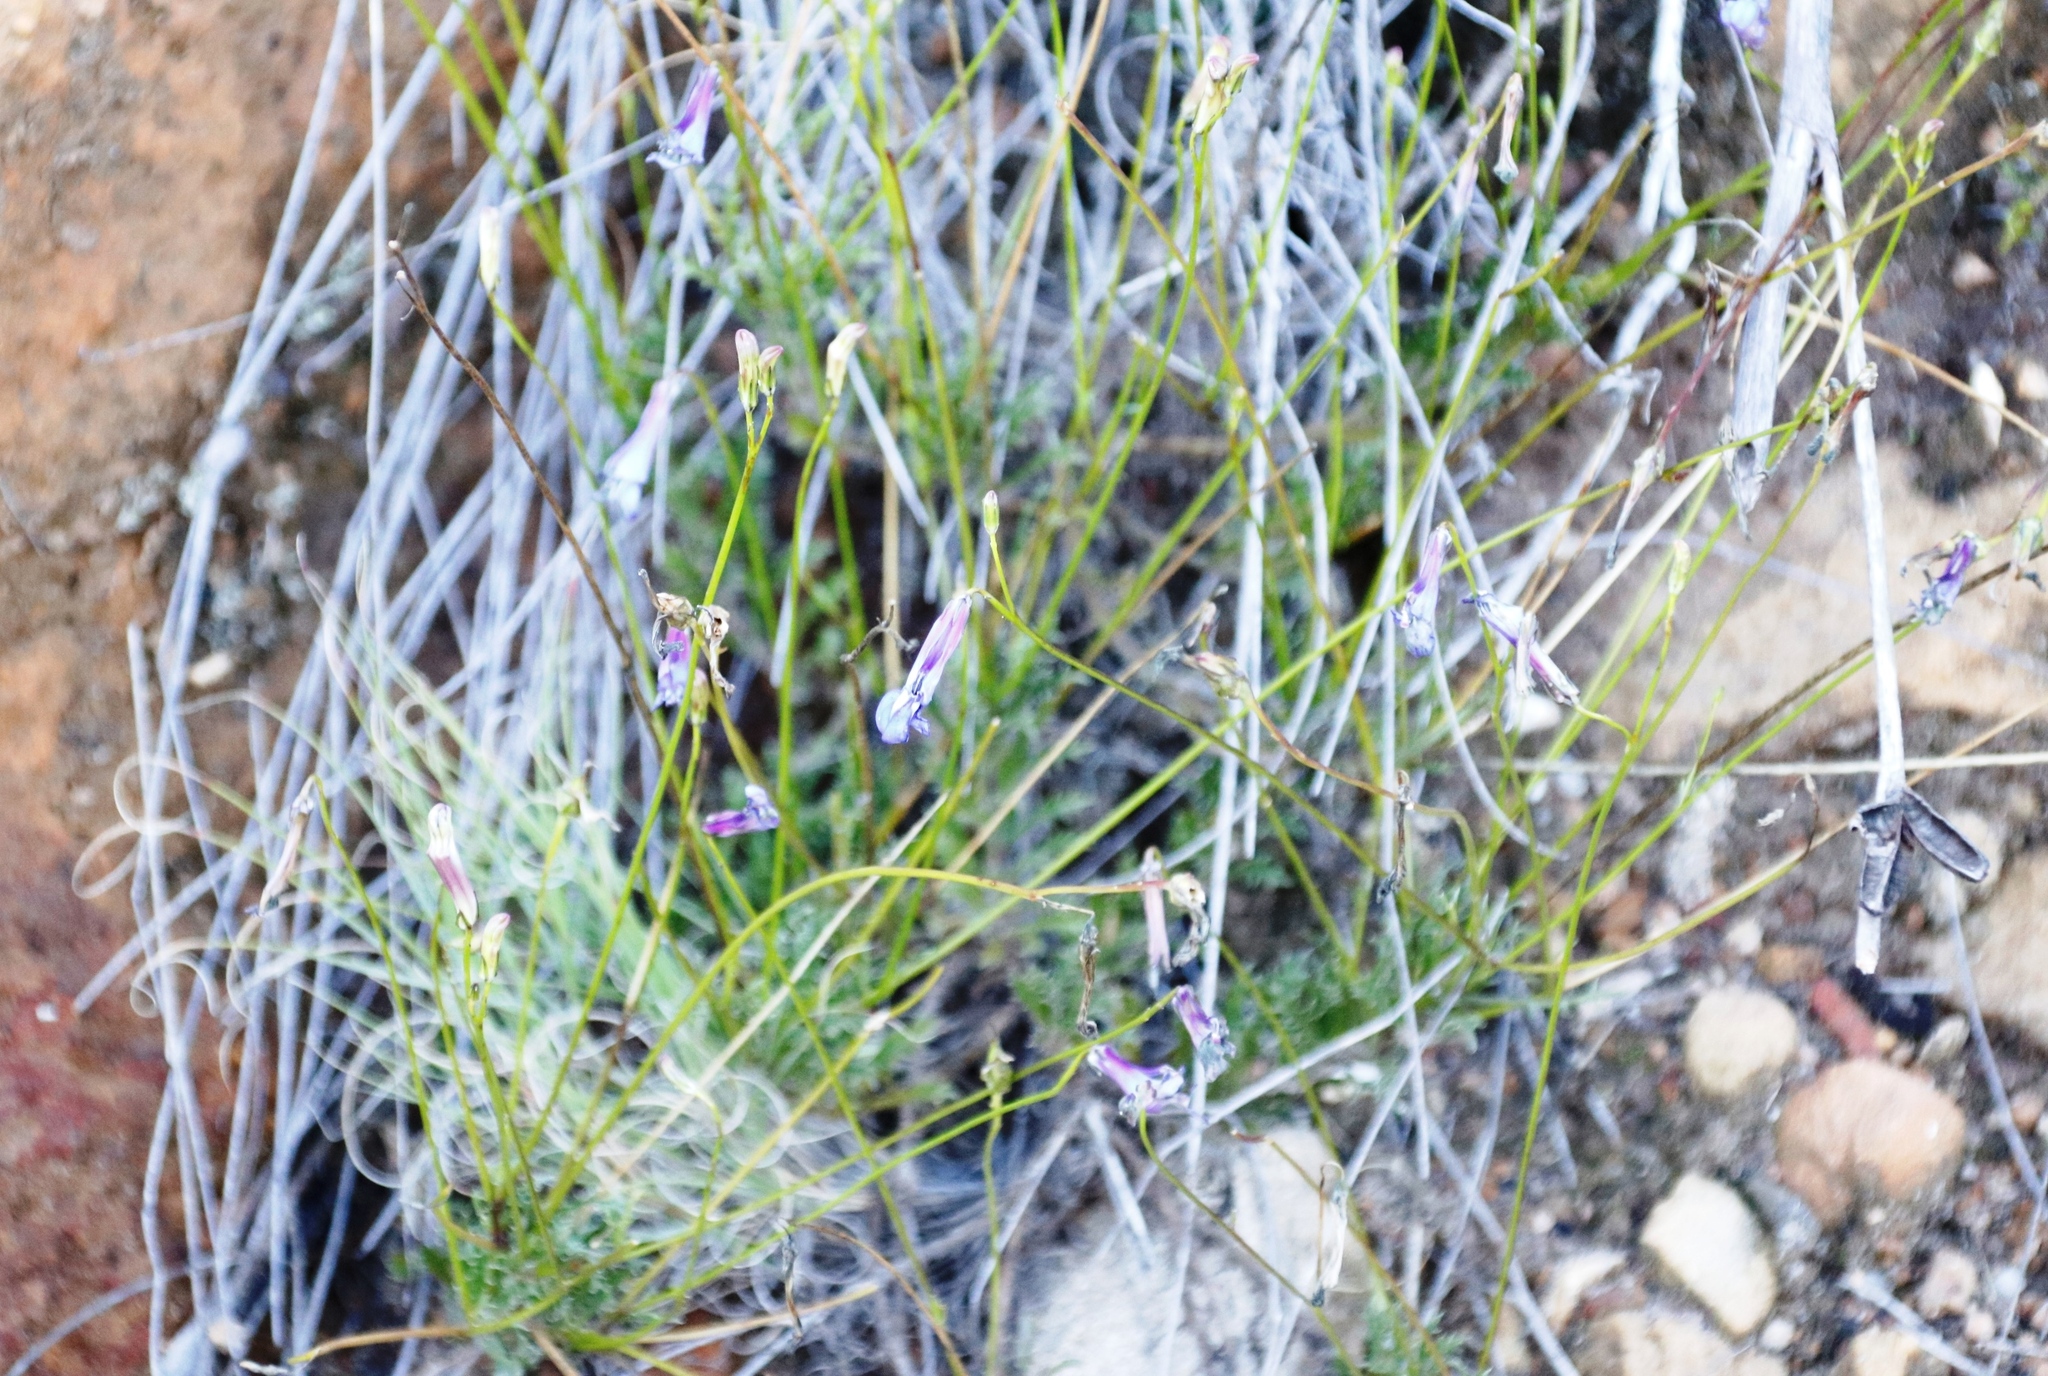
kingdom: Plantae
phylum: Tracheophyta
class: Magnoliopsida
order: Asterales
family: Campanulaceae
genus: Lobelia
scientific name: Lobelia coronopifolia
